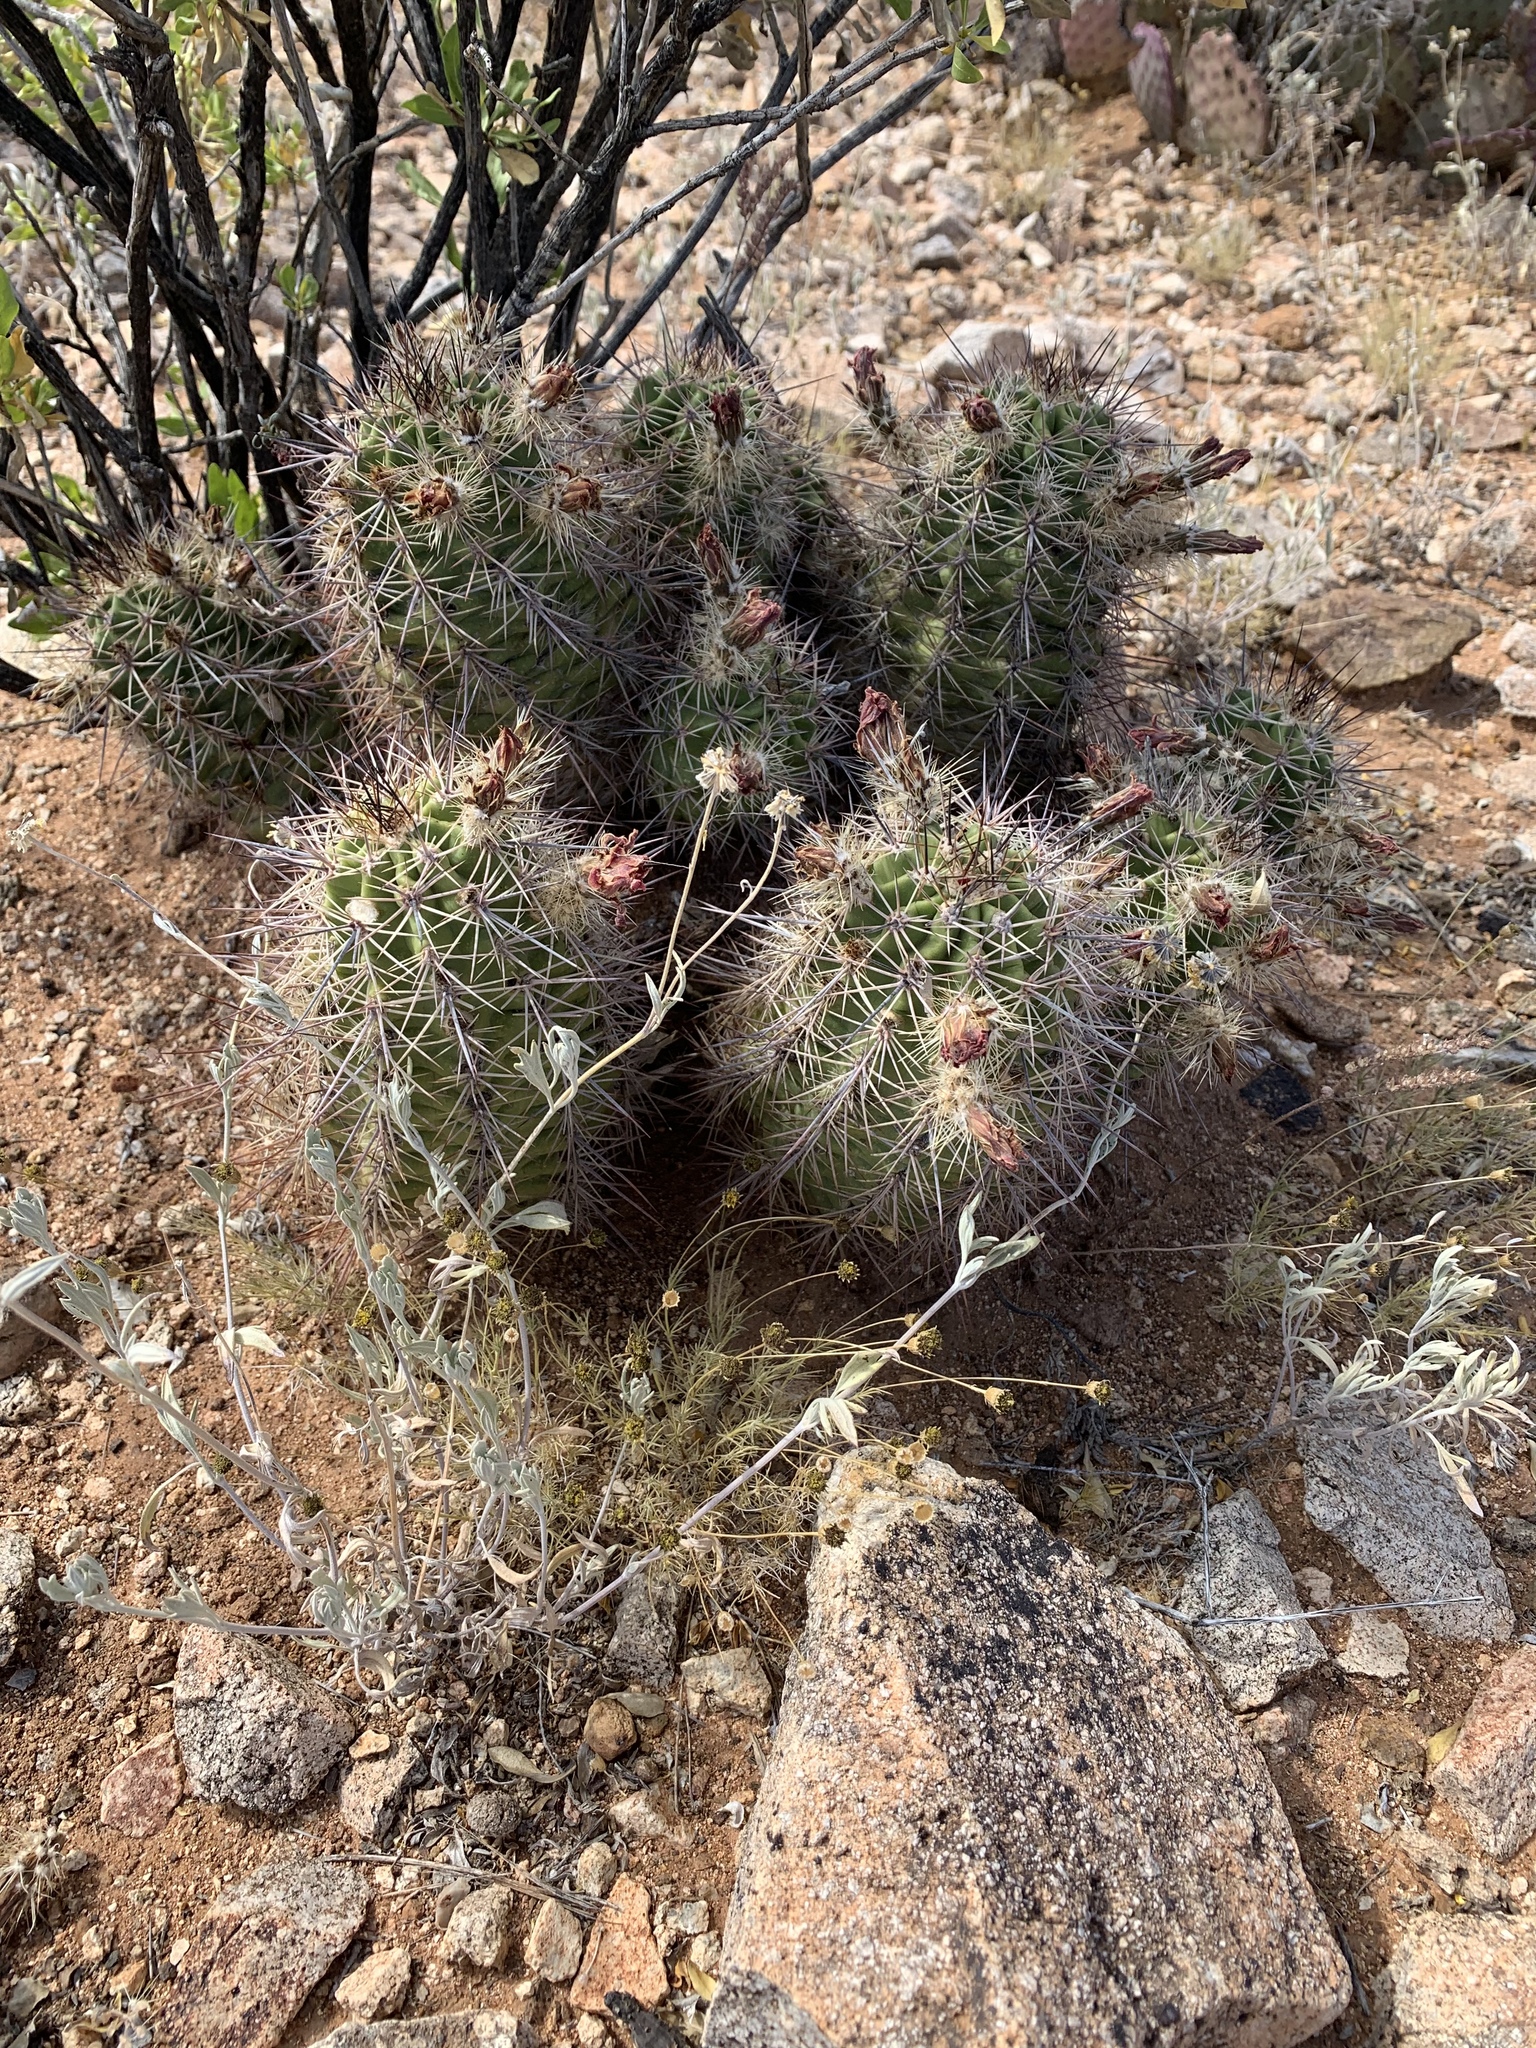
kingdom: Plantae
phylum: Tracheophyta
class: Magnoliopsida
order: Caryophyllales
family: Cactaceae
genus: Echinocereus
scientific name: Echinocereus coccineus
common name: Scarlet hedgehog cactus
